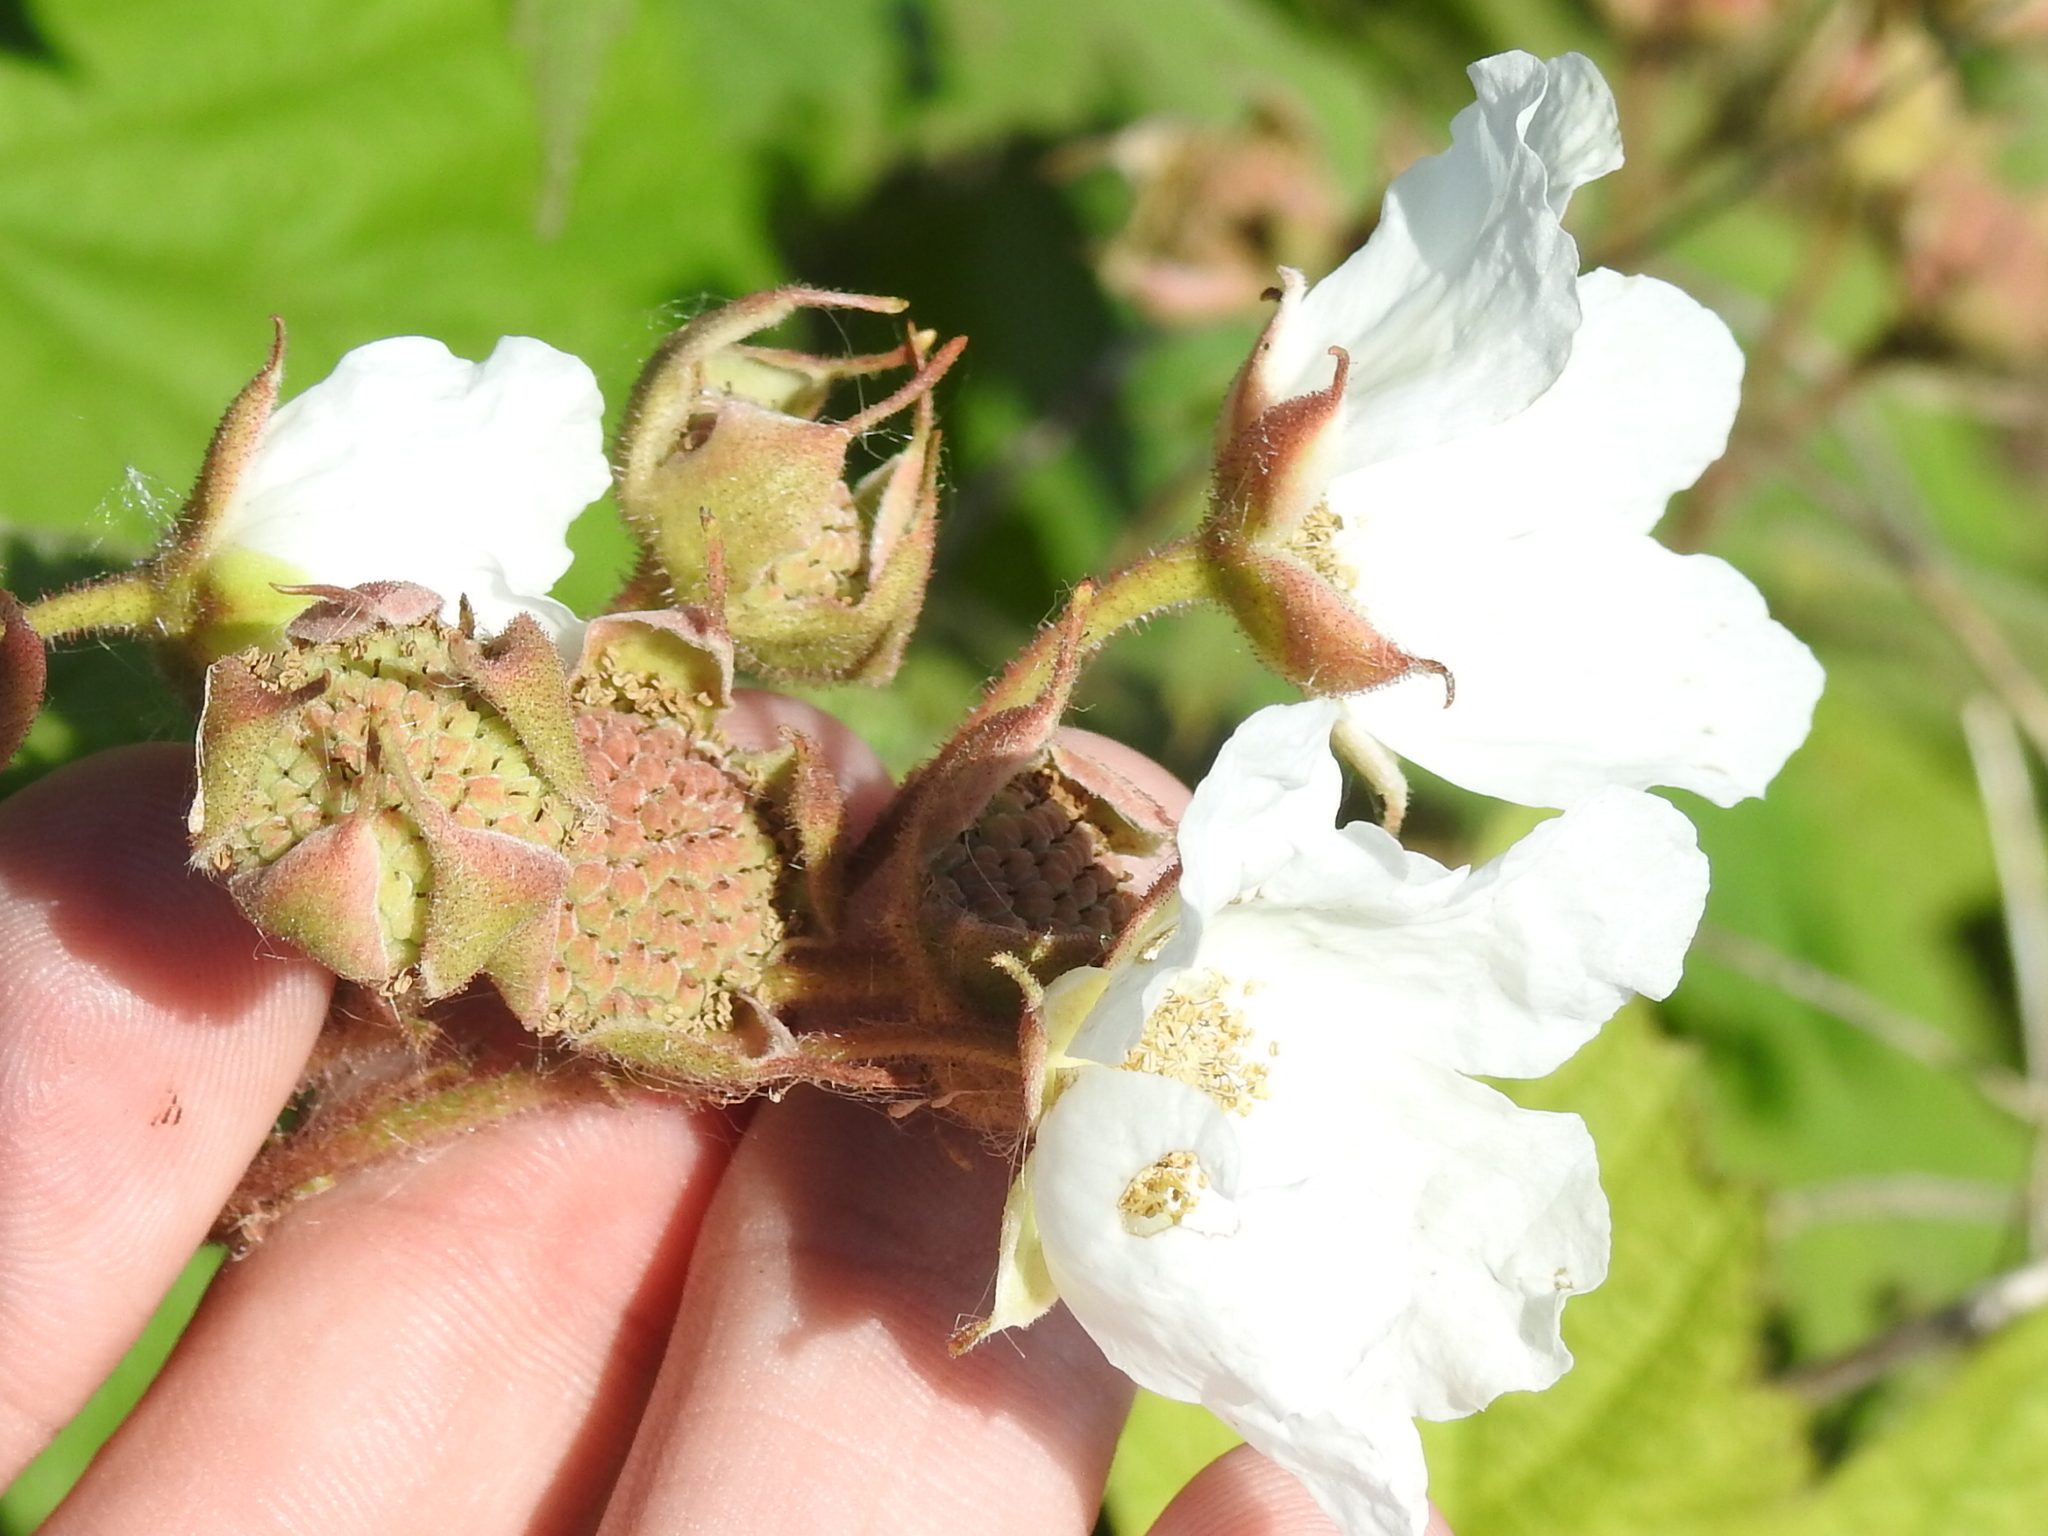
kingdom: Plantae
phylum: Tracheophyta
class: Magnoliopsida
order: Rosales
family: Rosaceae
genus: Rubus
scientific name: Rubus parviflorus
